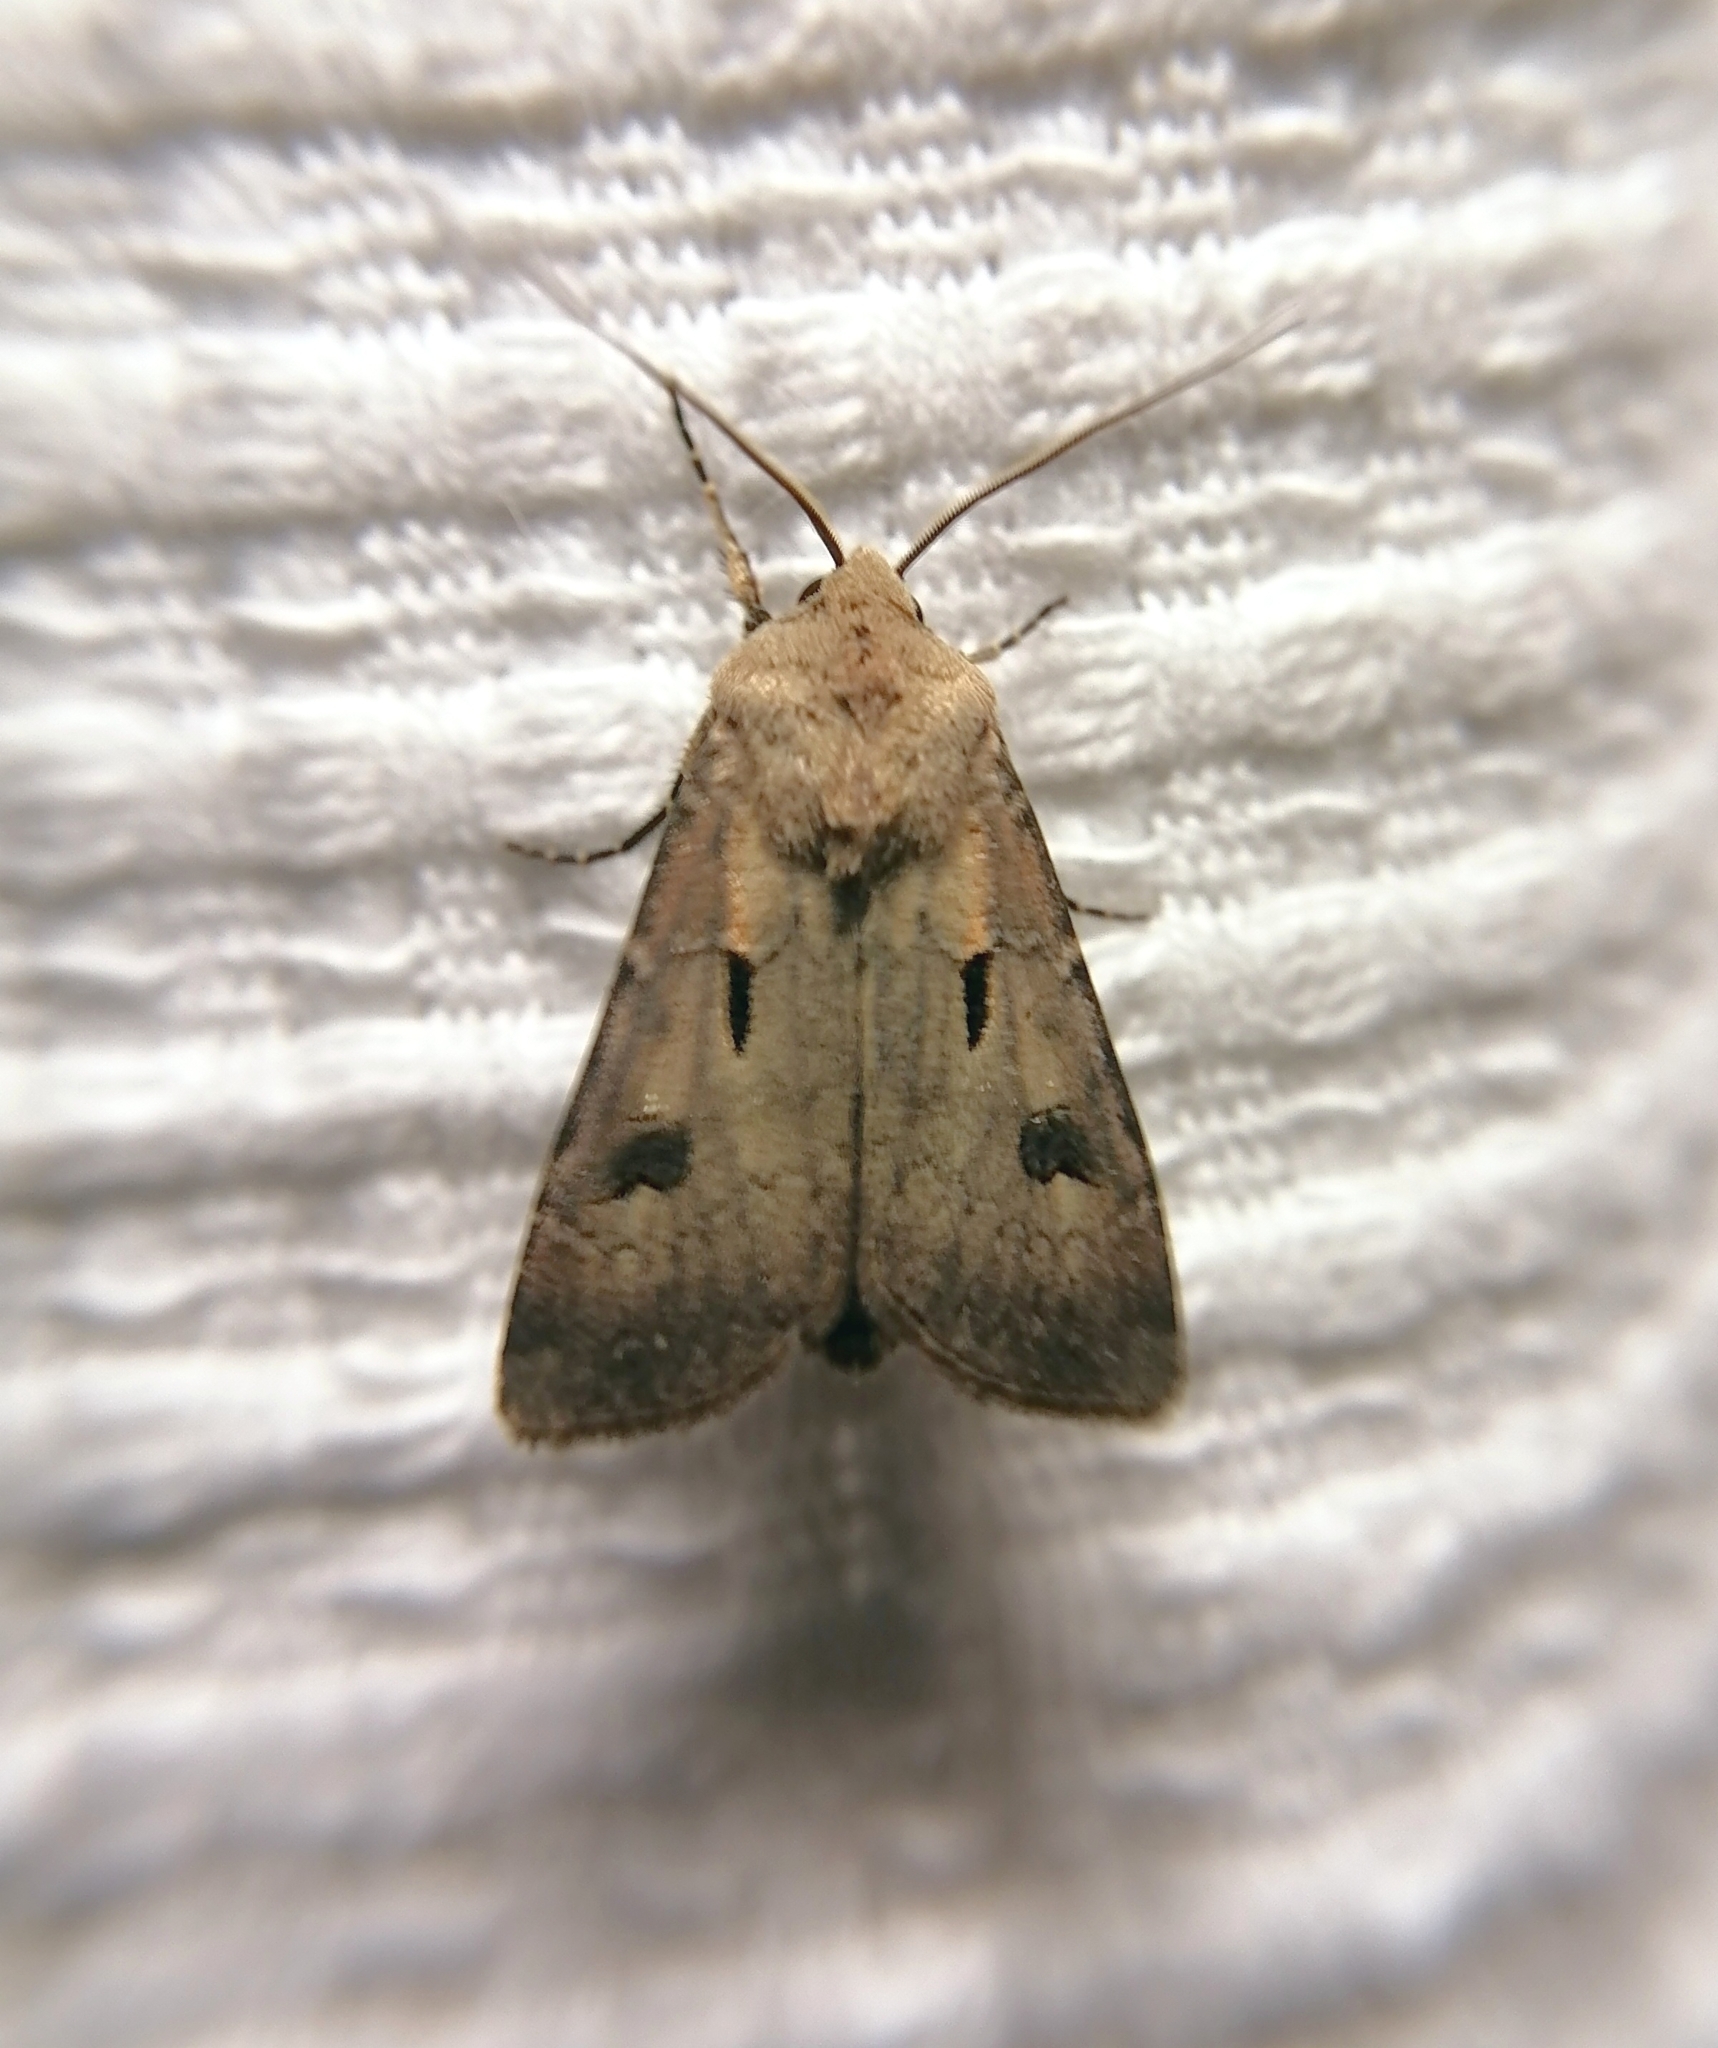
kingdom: Animalia
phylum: Arthropoda
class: Insecta
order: Lepidoptera
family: Noctuidae
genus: Agrotis
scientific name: Agrotis exclamationis
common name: Heart and dart
